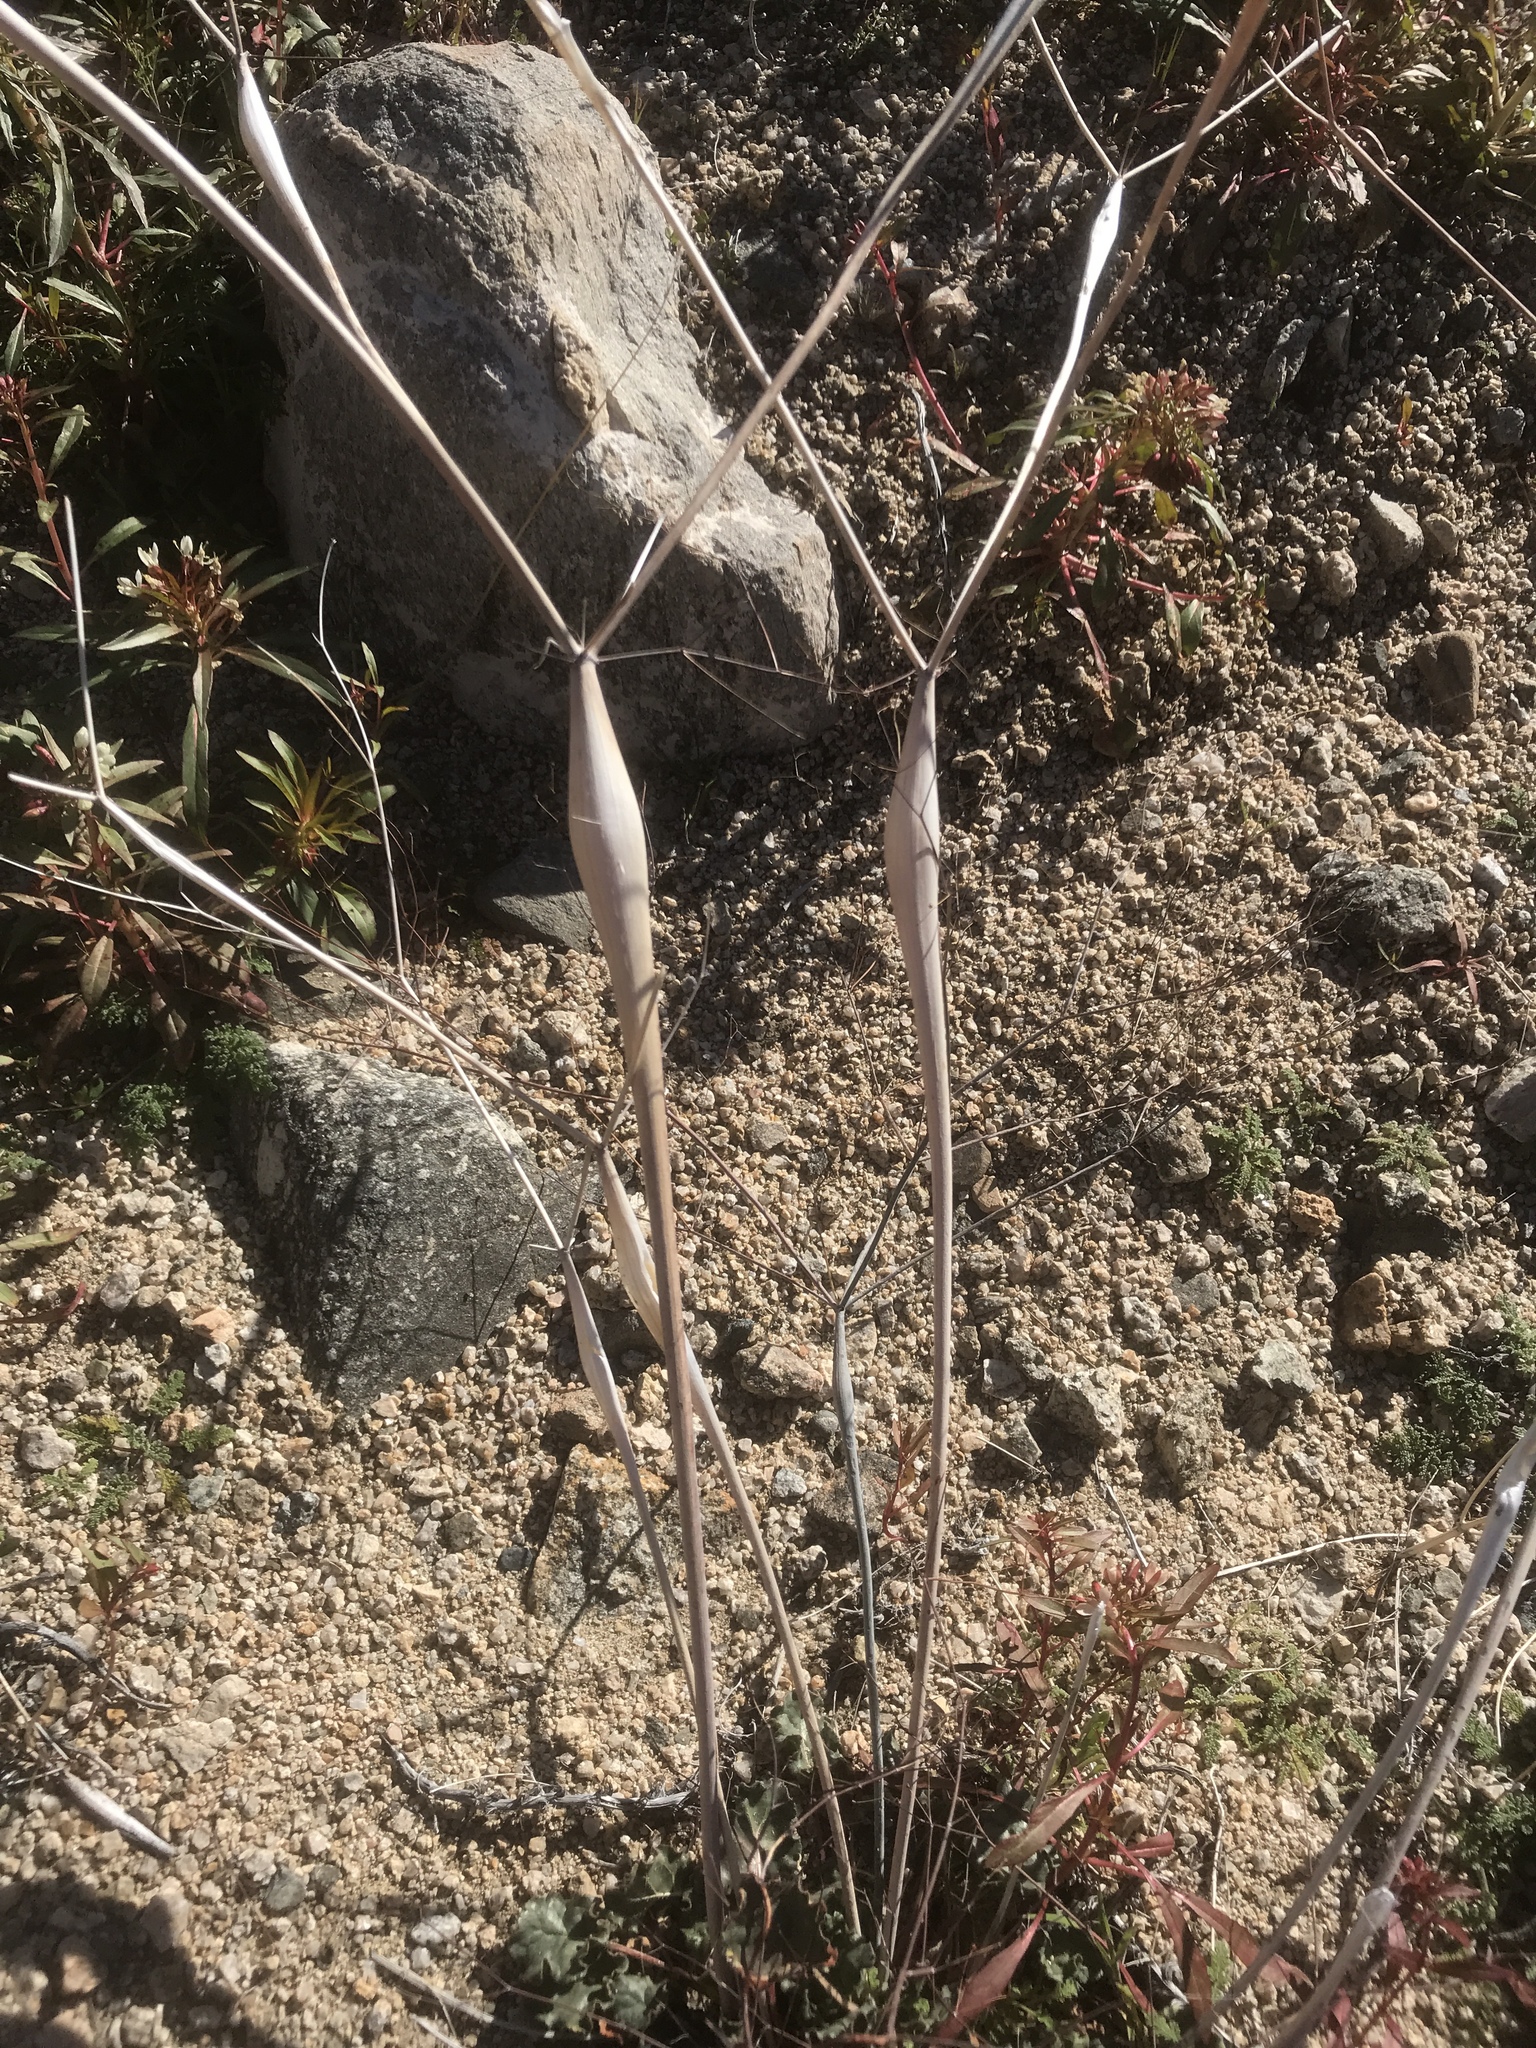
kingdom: Plantae
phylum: Tracheophyta
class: Magnoliopsida
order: Caryophyllales
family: Polygonaceae
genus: Eriogonum
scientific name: Eriogonum inflatum
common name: Desert trumpet
